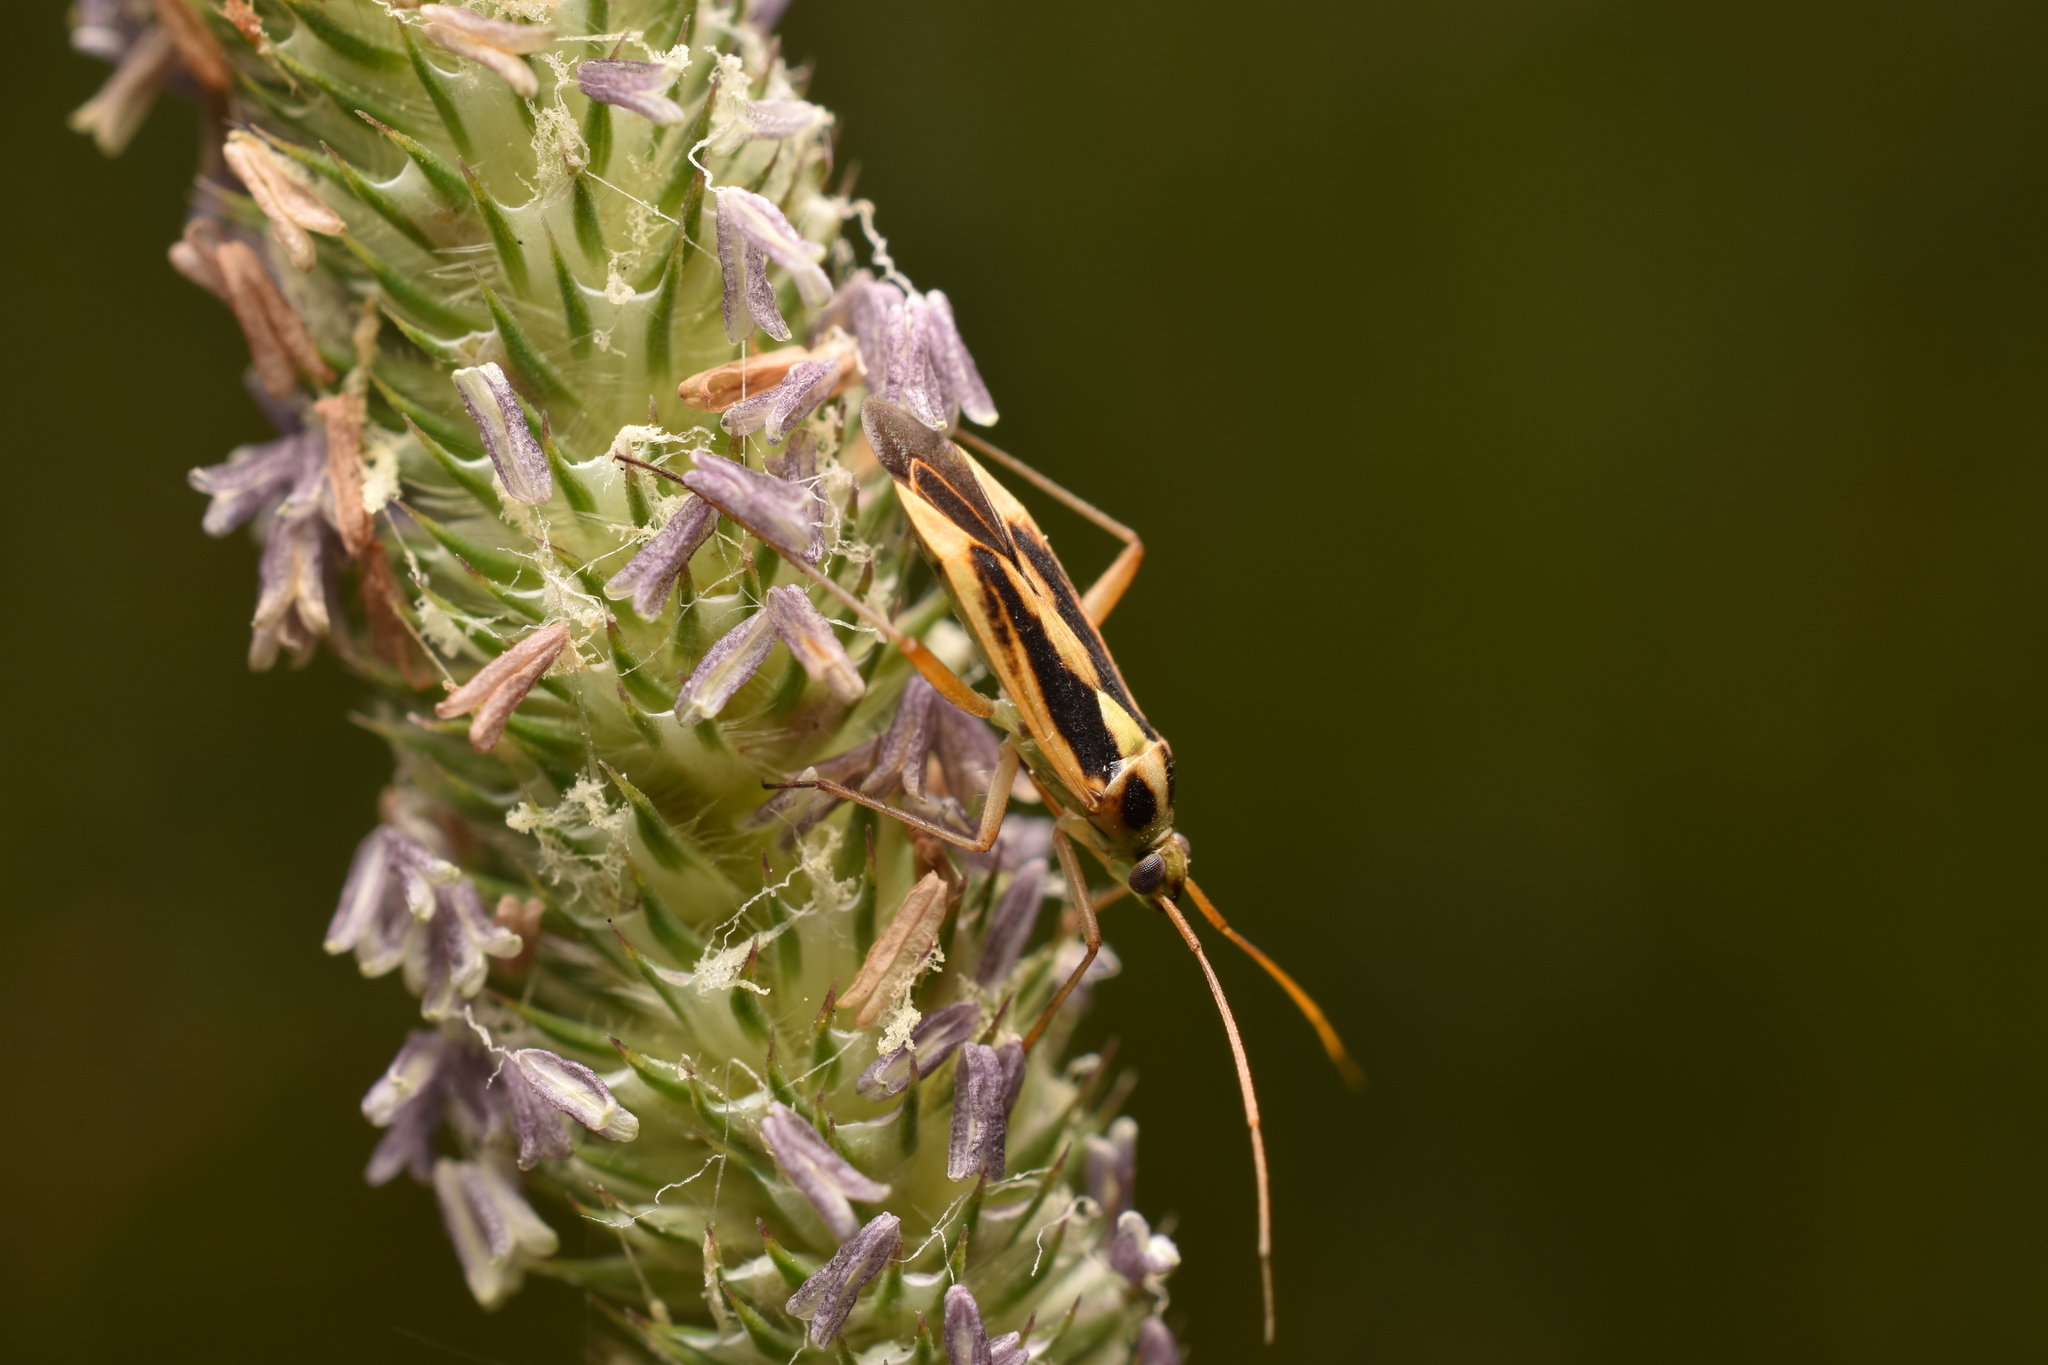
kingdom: Animalia
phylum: Arthropoda
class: Insecta
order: Hemiptera
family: Miridae
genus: Stenotus
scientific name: Stenotus binotatus
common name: Plant bug
